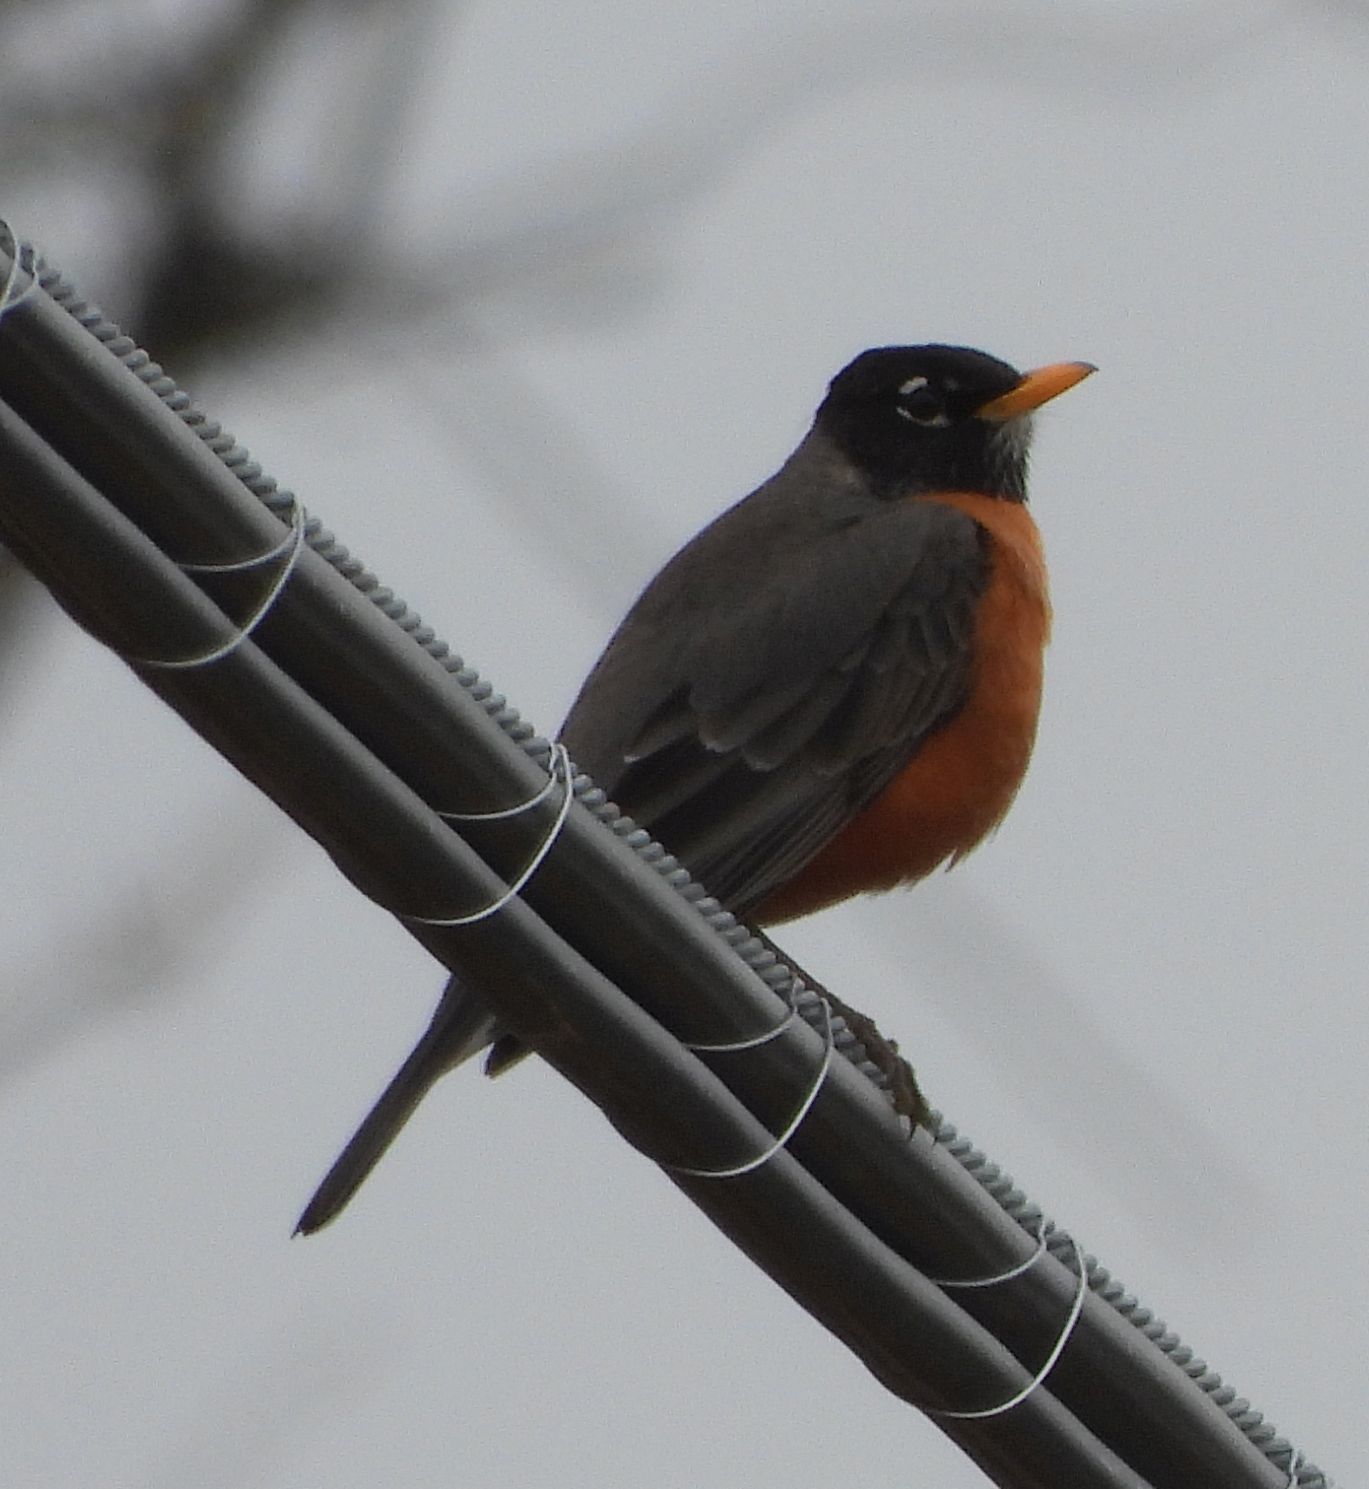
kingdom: Animalia
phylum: Chordata
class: Aves
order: Passeriformes
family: Turdidae
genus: Turdus
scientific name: Turdus migratorius
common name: American robin
